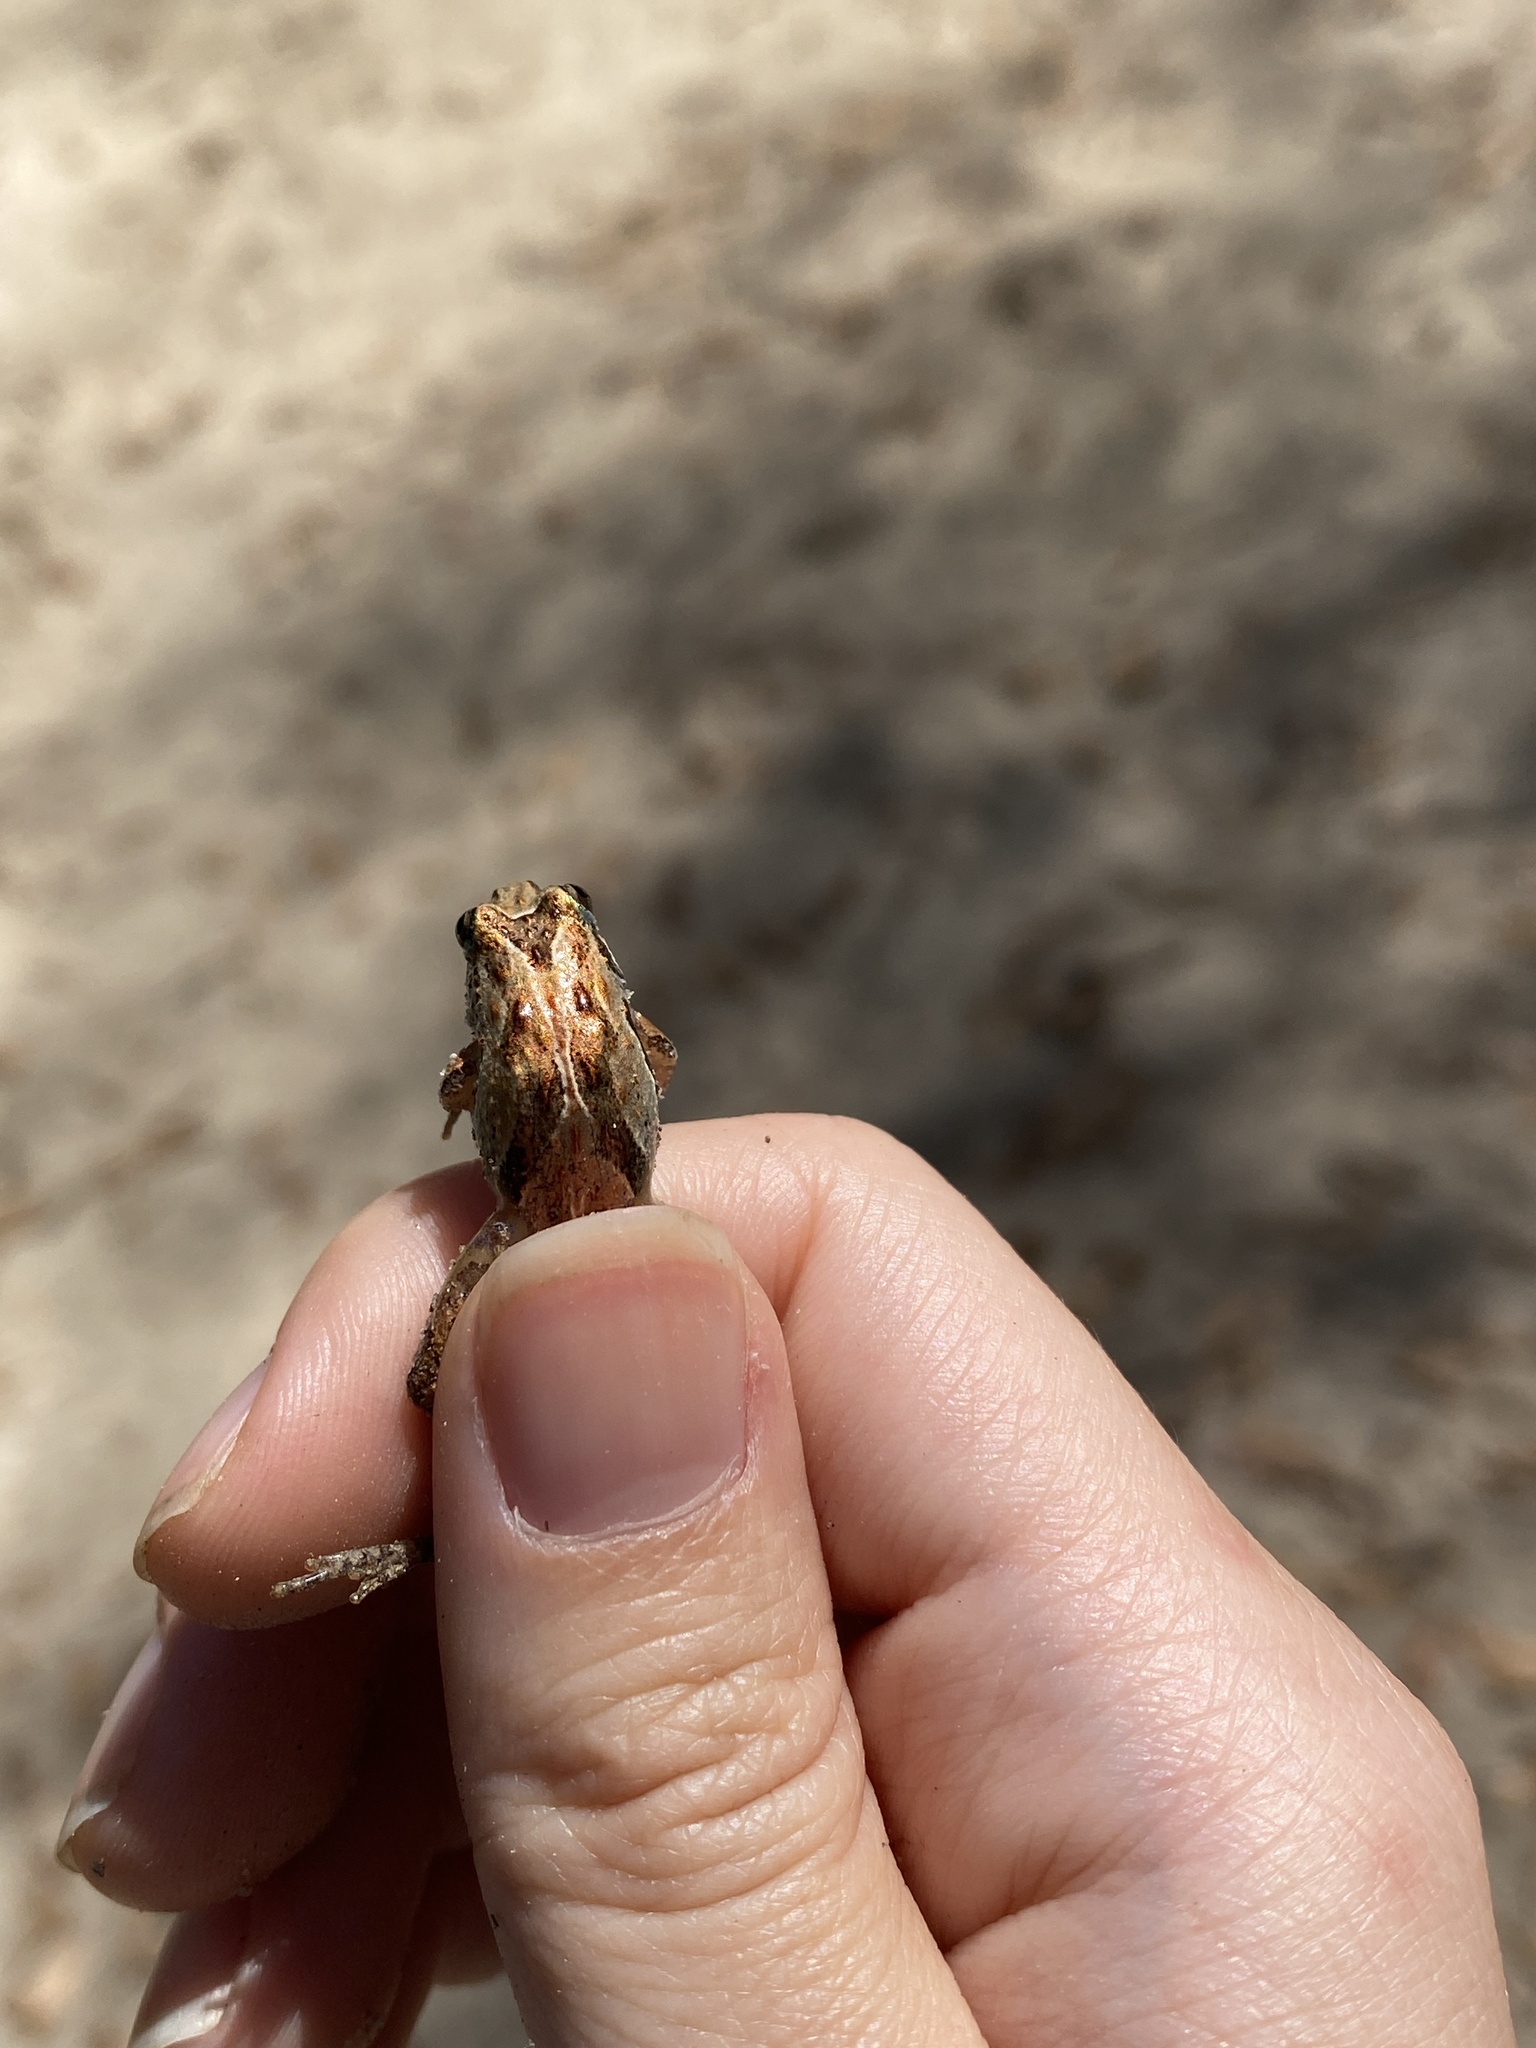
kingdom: Animalia
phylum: Chordata
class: Amphibia
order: Anura
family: Hylidae
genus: Acris
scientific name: Acris gryllus
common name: Southern cricket frog
